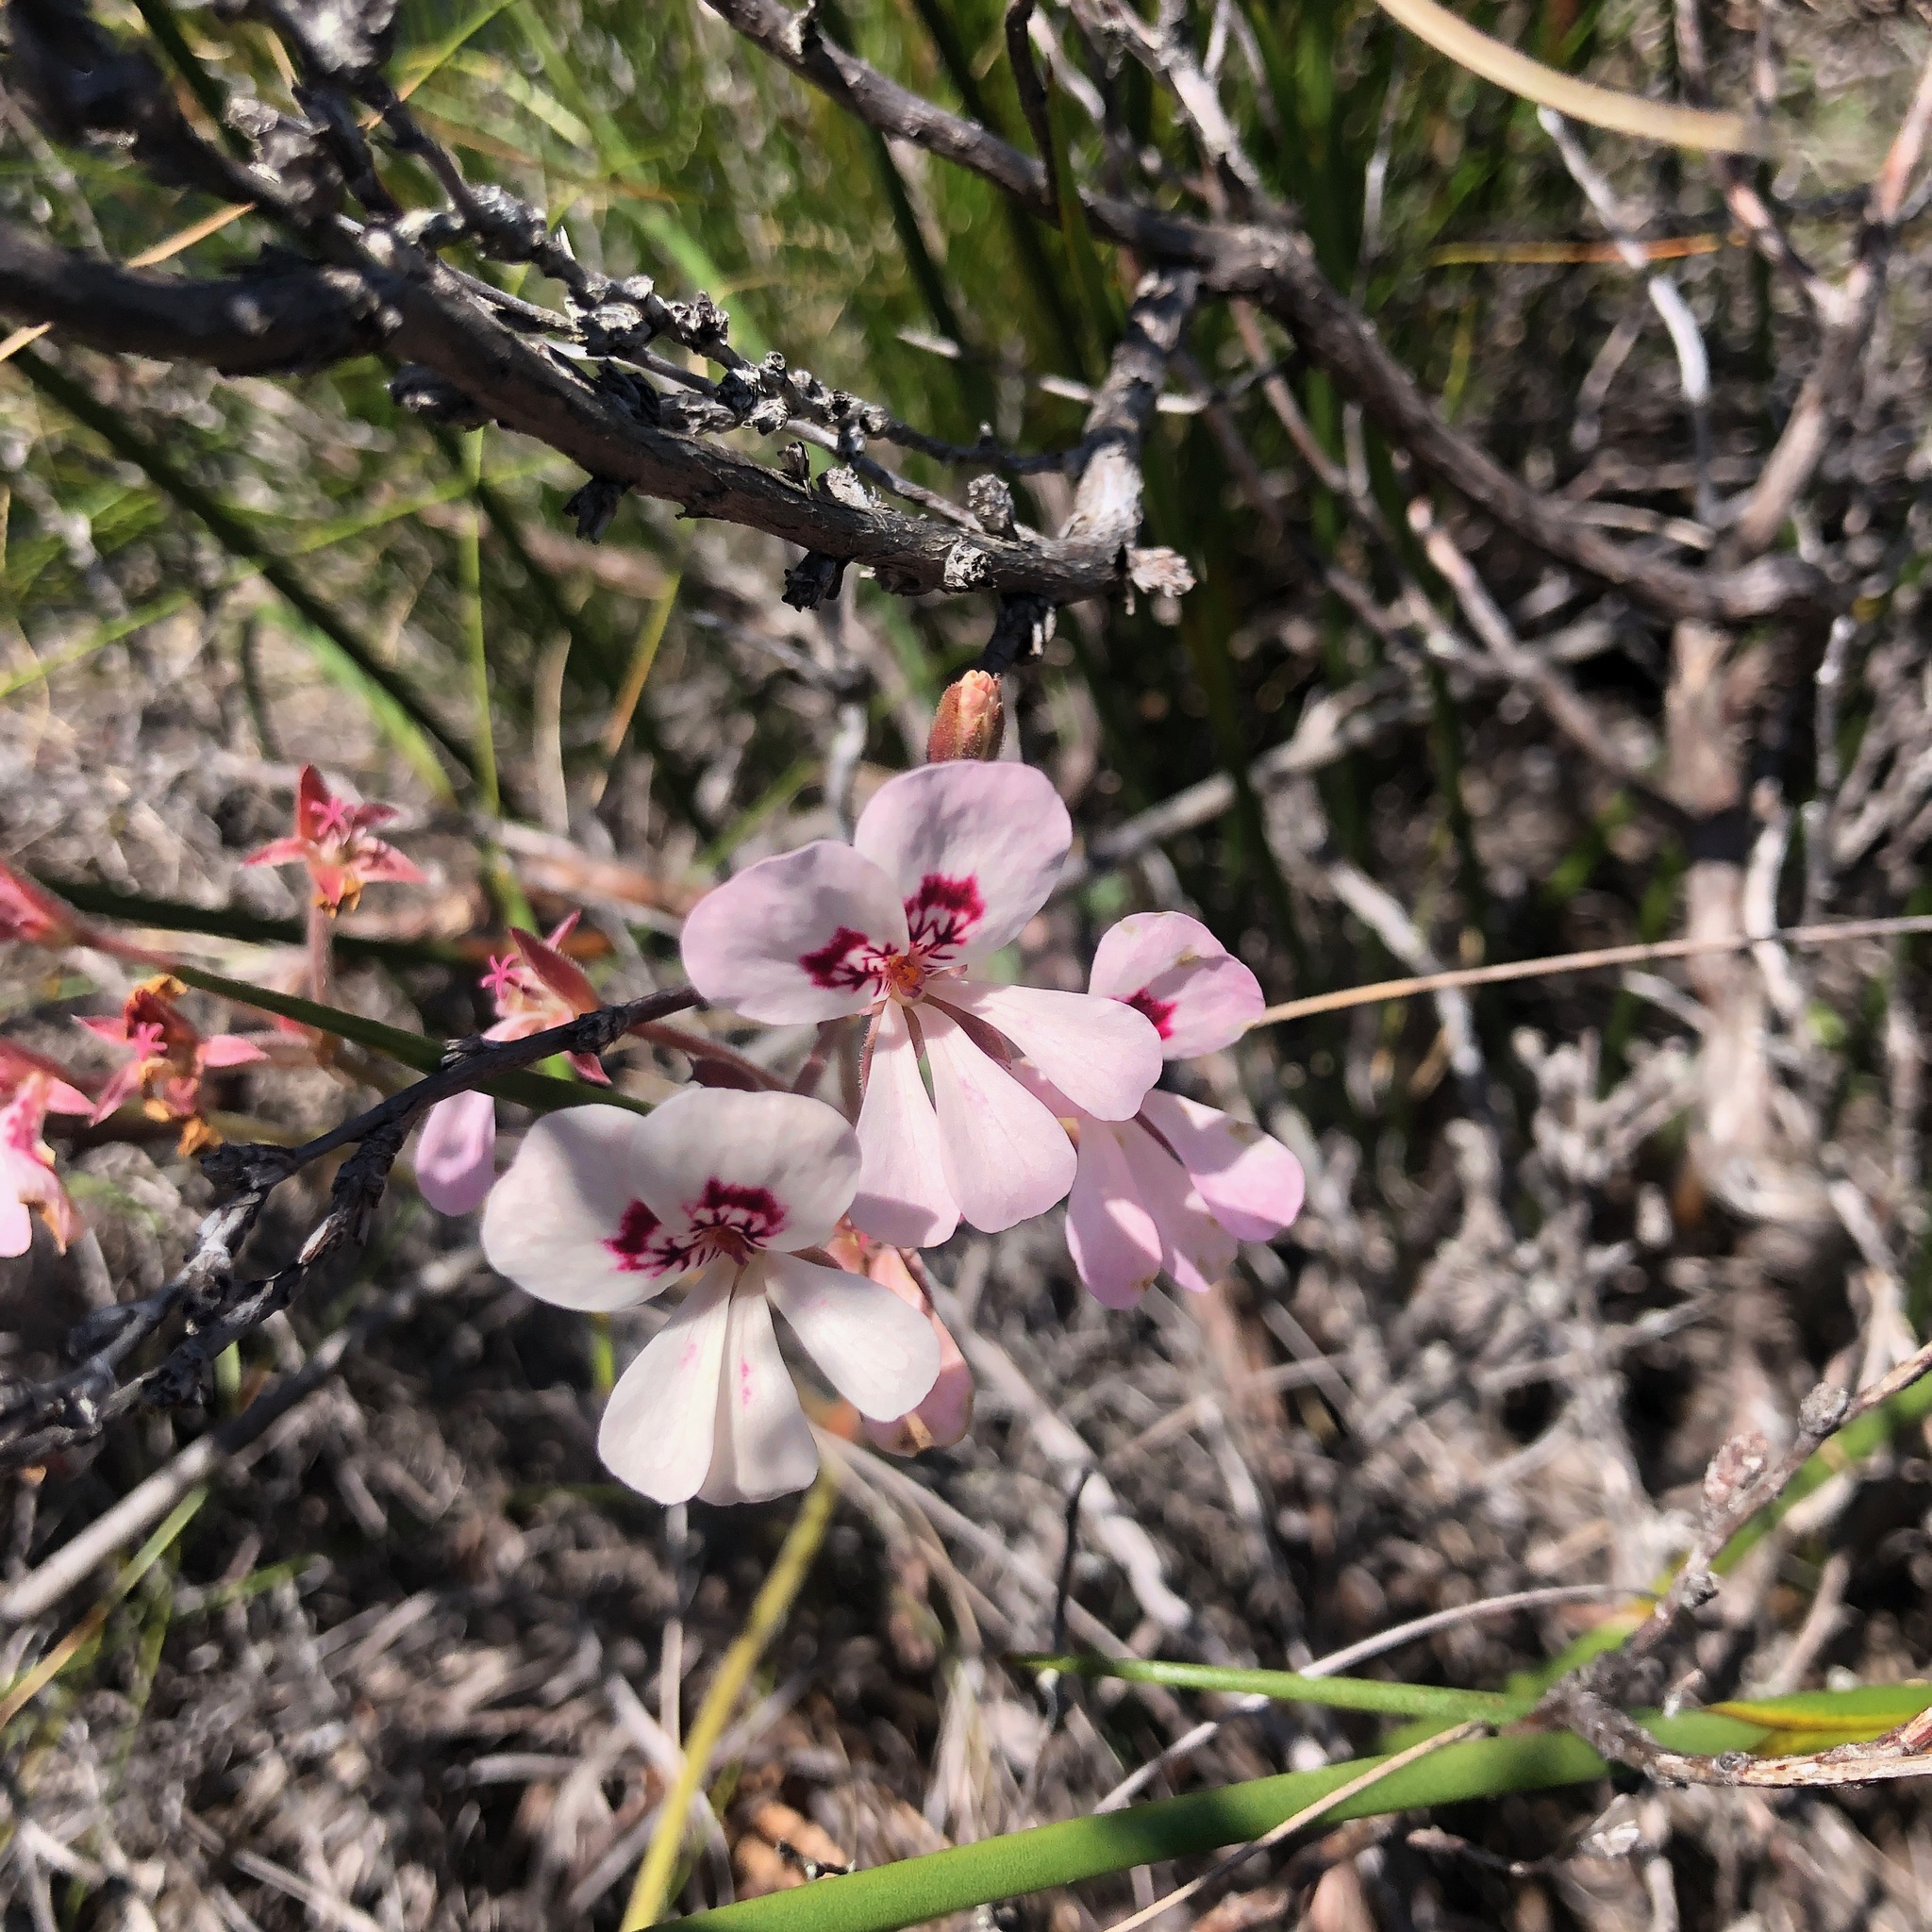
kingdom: Plantae
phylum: Tracheophyta
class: Magnoliopsida
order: Geraniales
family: Geraniaceae
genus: Pelargonium
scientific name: Pelargonium pinnatum
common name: Pinnated pelargonium
